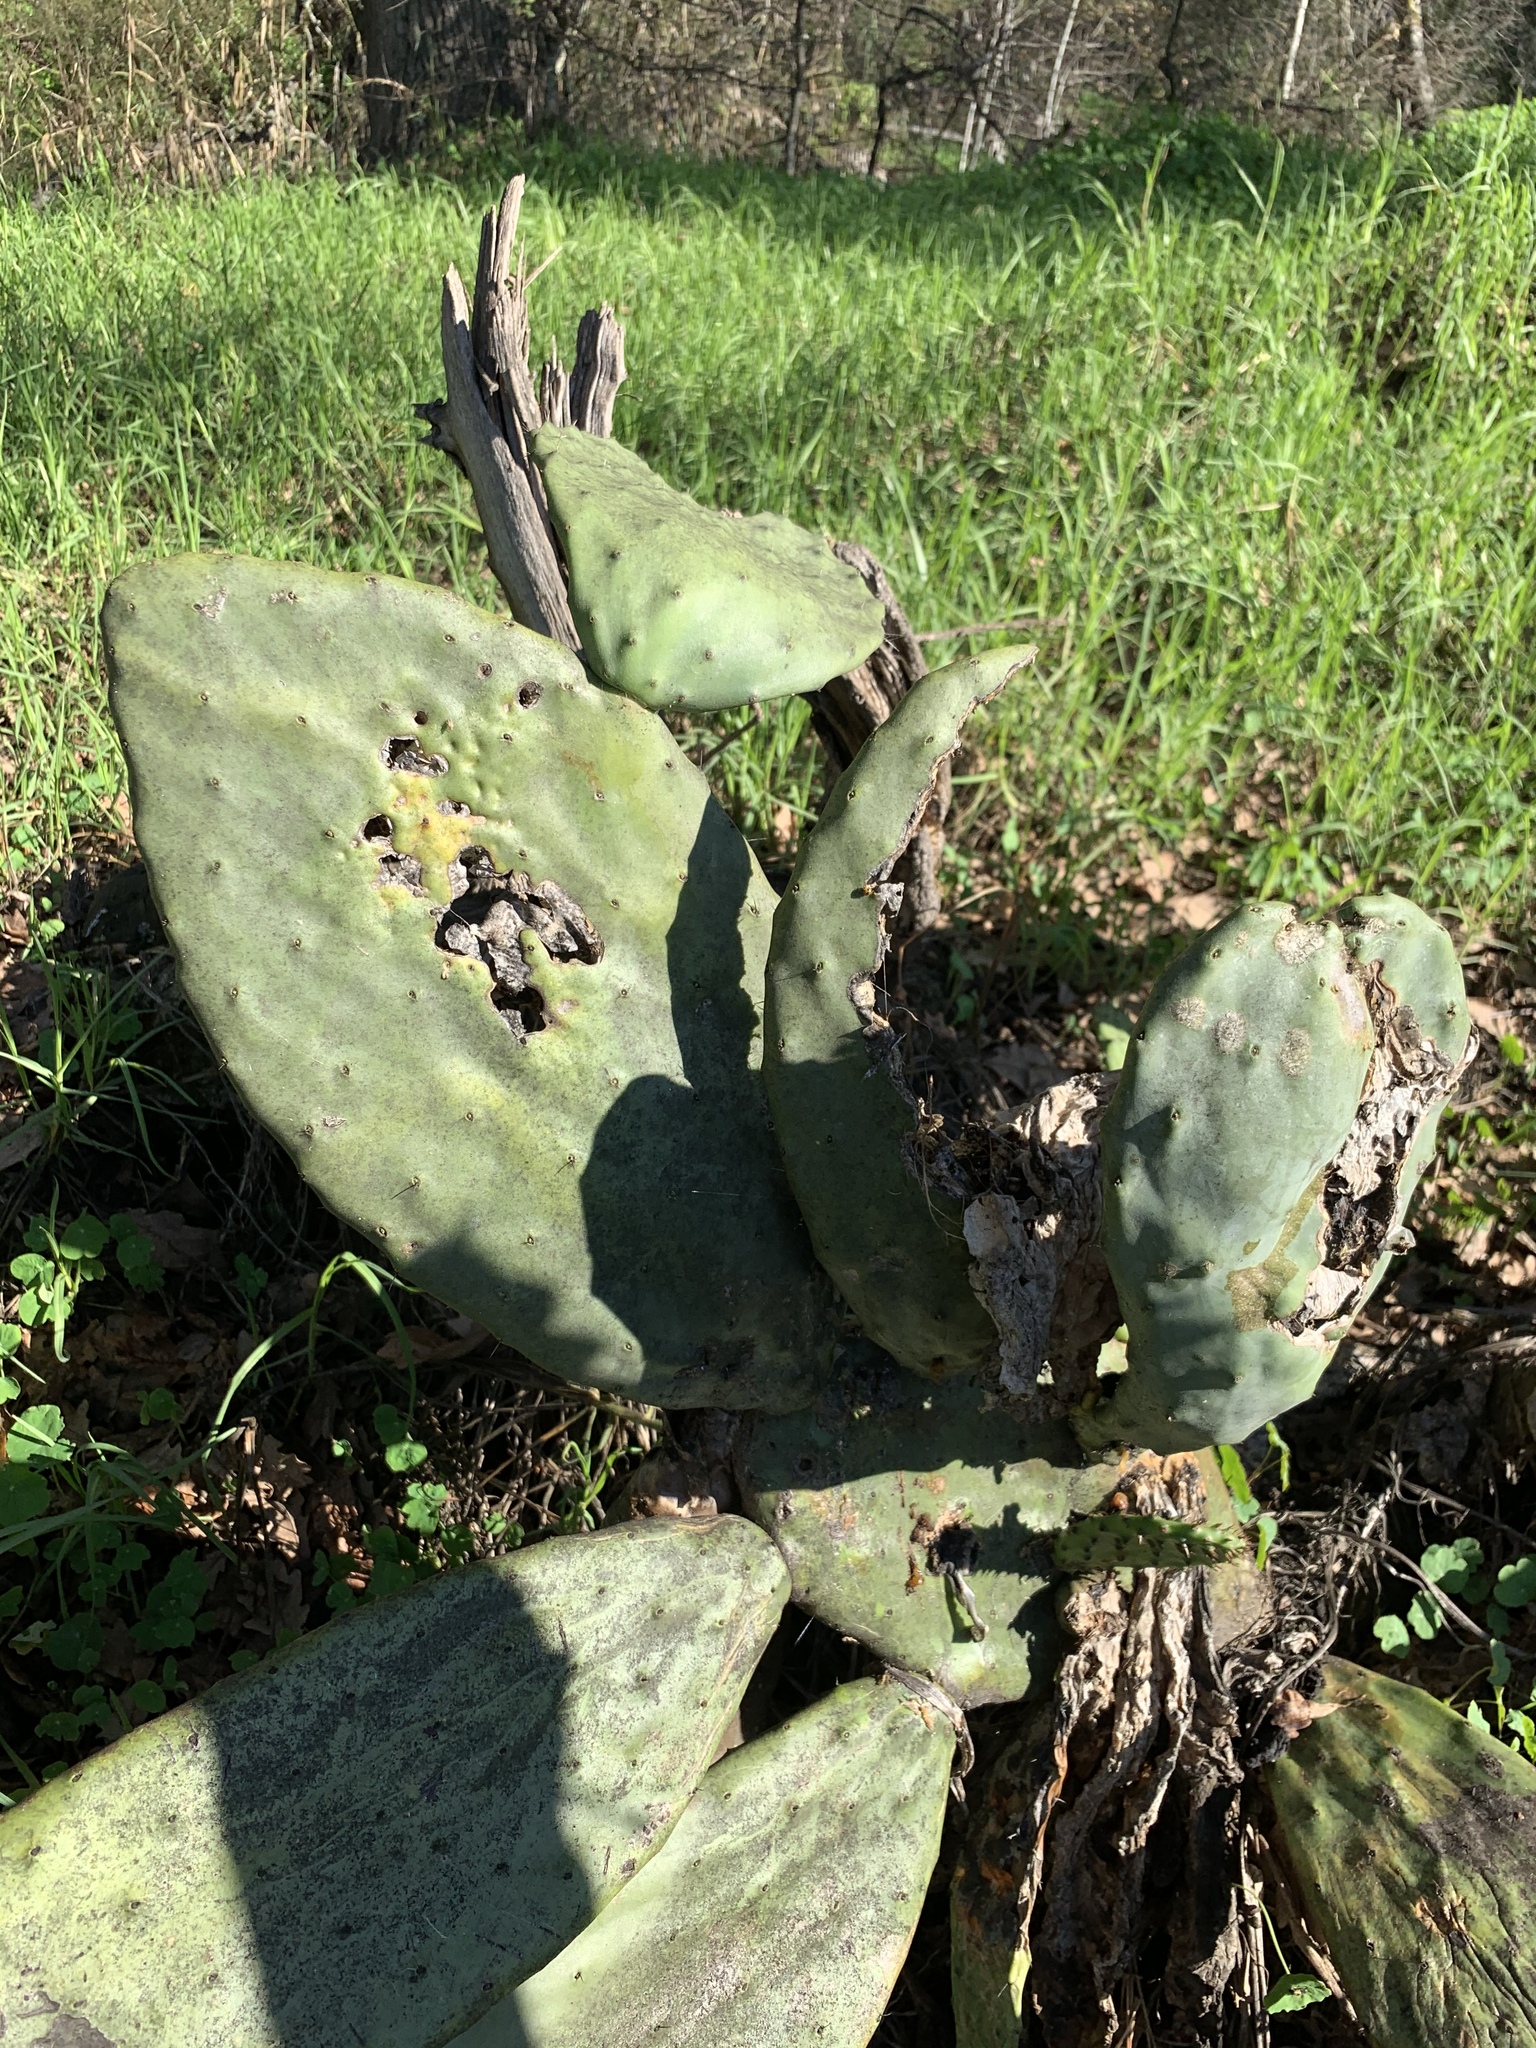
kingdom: Plantae
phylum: Tracheophyta
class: Magnoliopsida
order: Caryophyllales
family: Cactaceae
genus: Opuntia
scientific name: Opuntia ficus-indica
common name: Barbary fig
